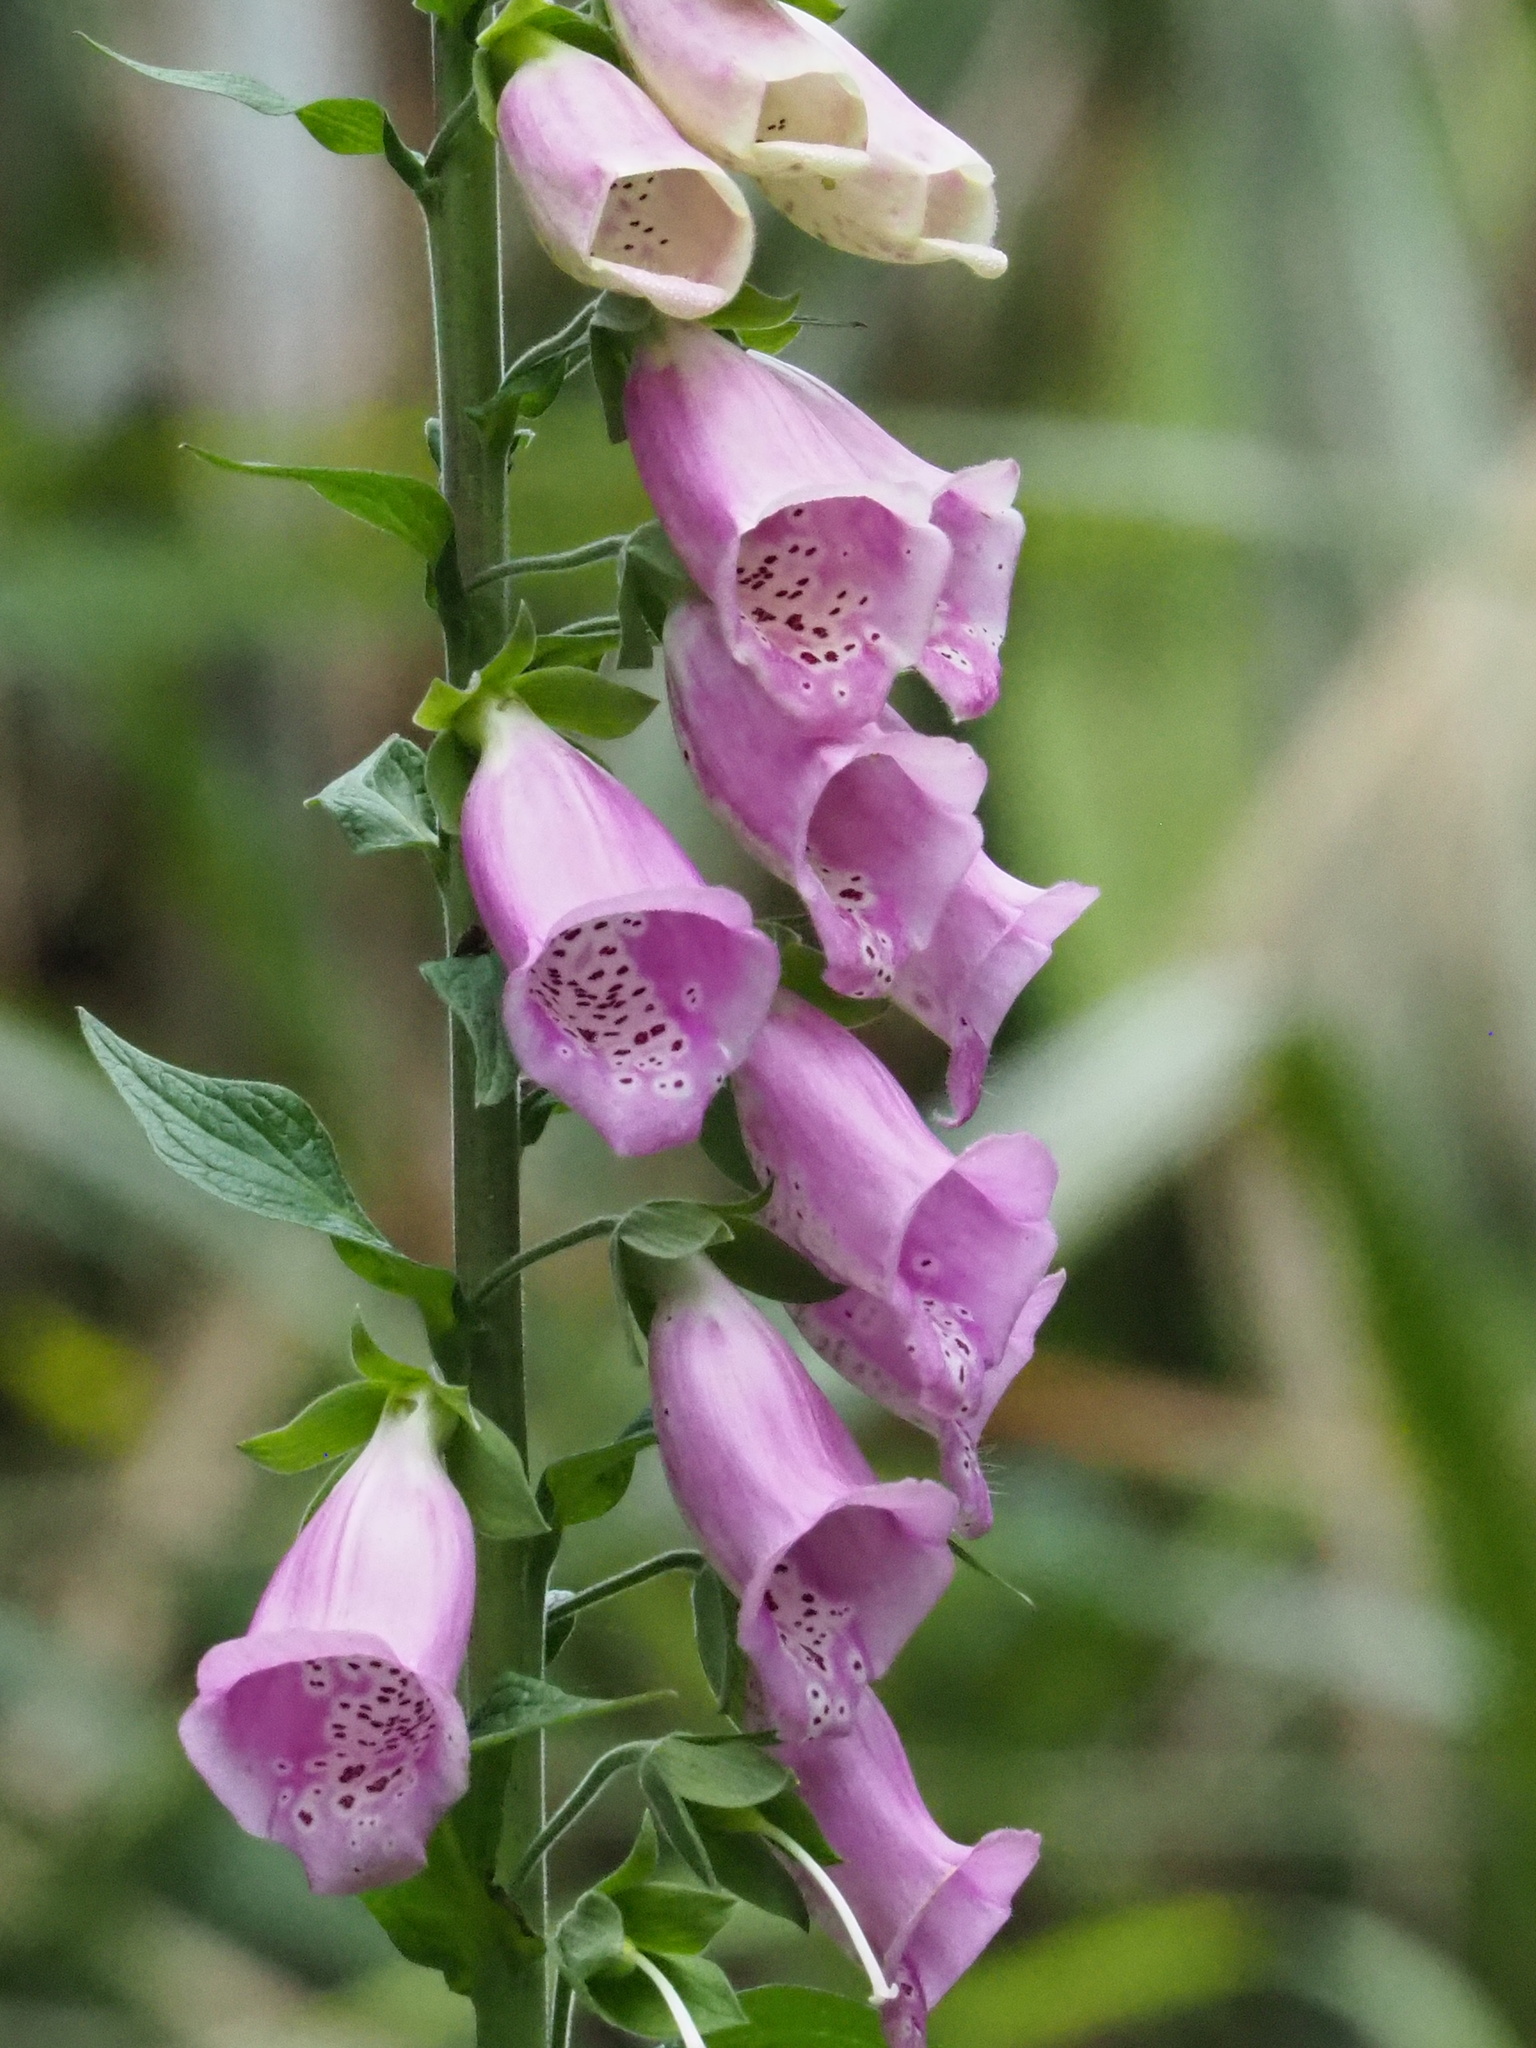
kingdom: Plantae
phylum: Tracheophyta
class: Magnoliopsida
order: Lamiales
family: Plantaginaceae
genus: Digitalis
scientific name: Digitalis purpurea
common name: Foxglove
